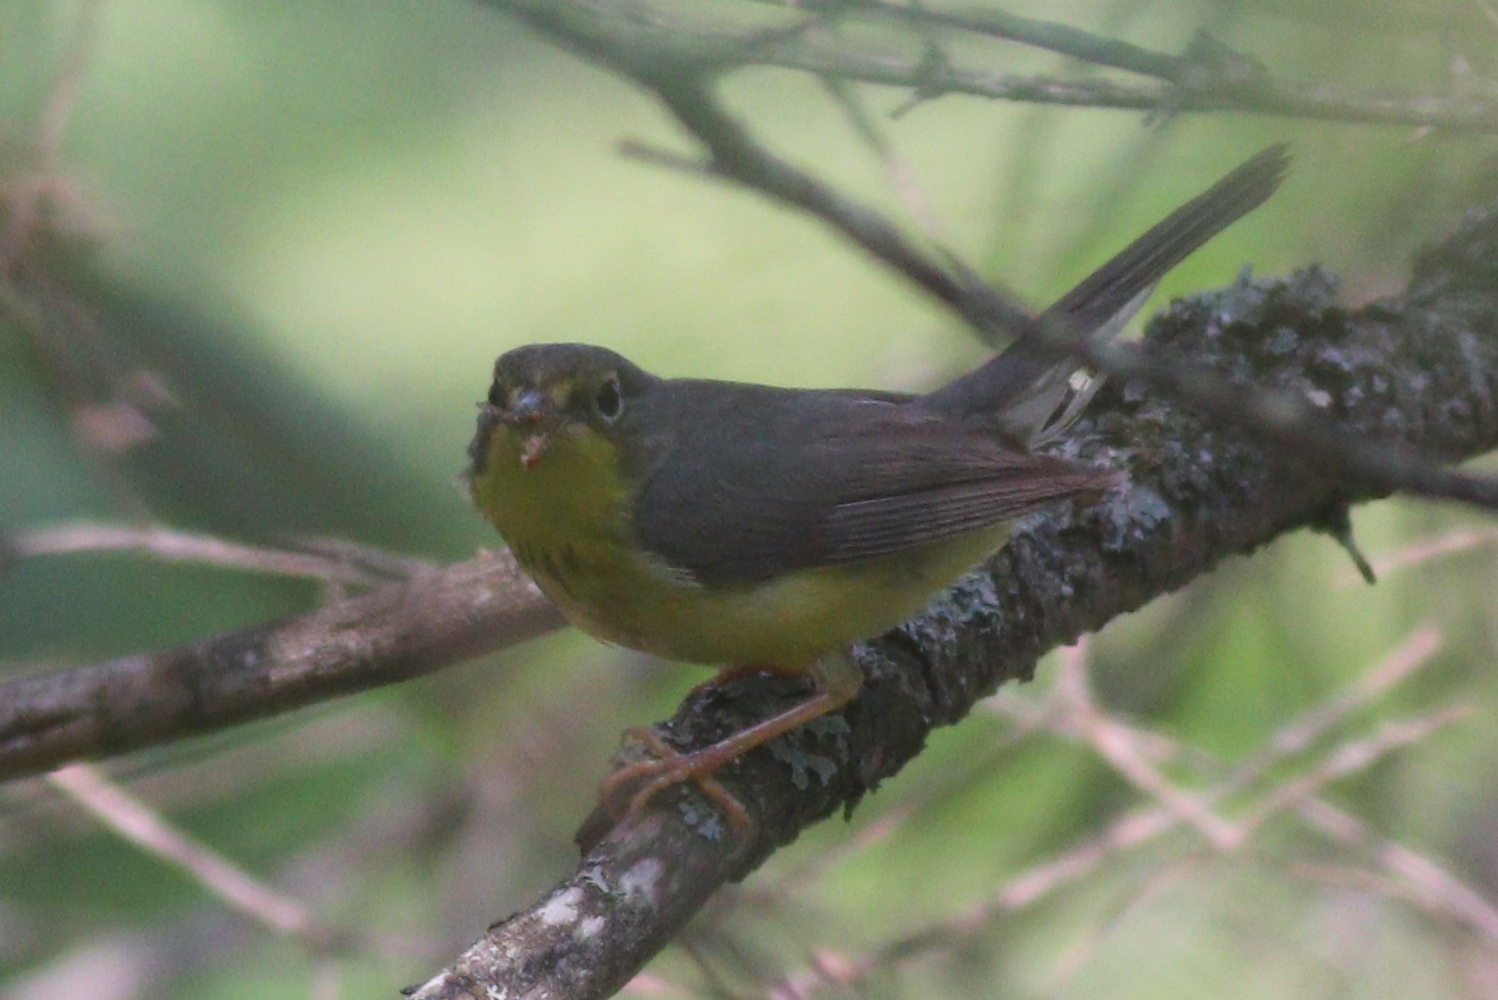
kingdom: Animalia
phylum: Chordata
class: Aves
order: Passeriformes
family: Parulidae
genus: Cardellina
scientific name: Cardellina canadensis
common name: Canada warbler
